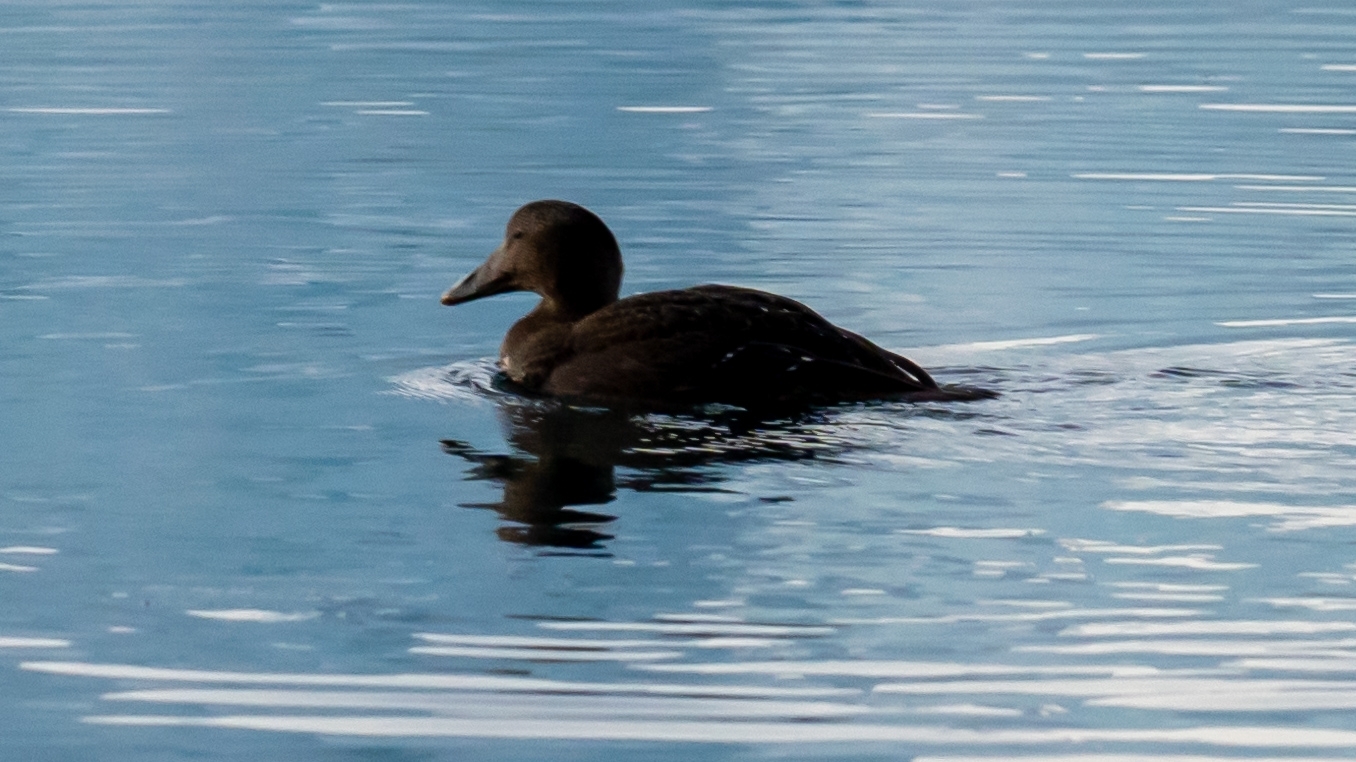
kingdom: Animalia
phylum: Chordata
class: Aves
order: Anseriformes
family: Anatidae
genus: Somateria
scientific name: Somateria mollissima
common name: Common eider
